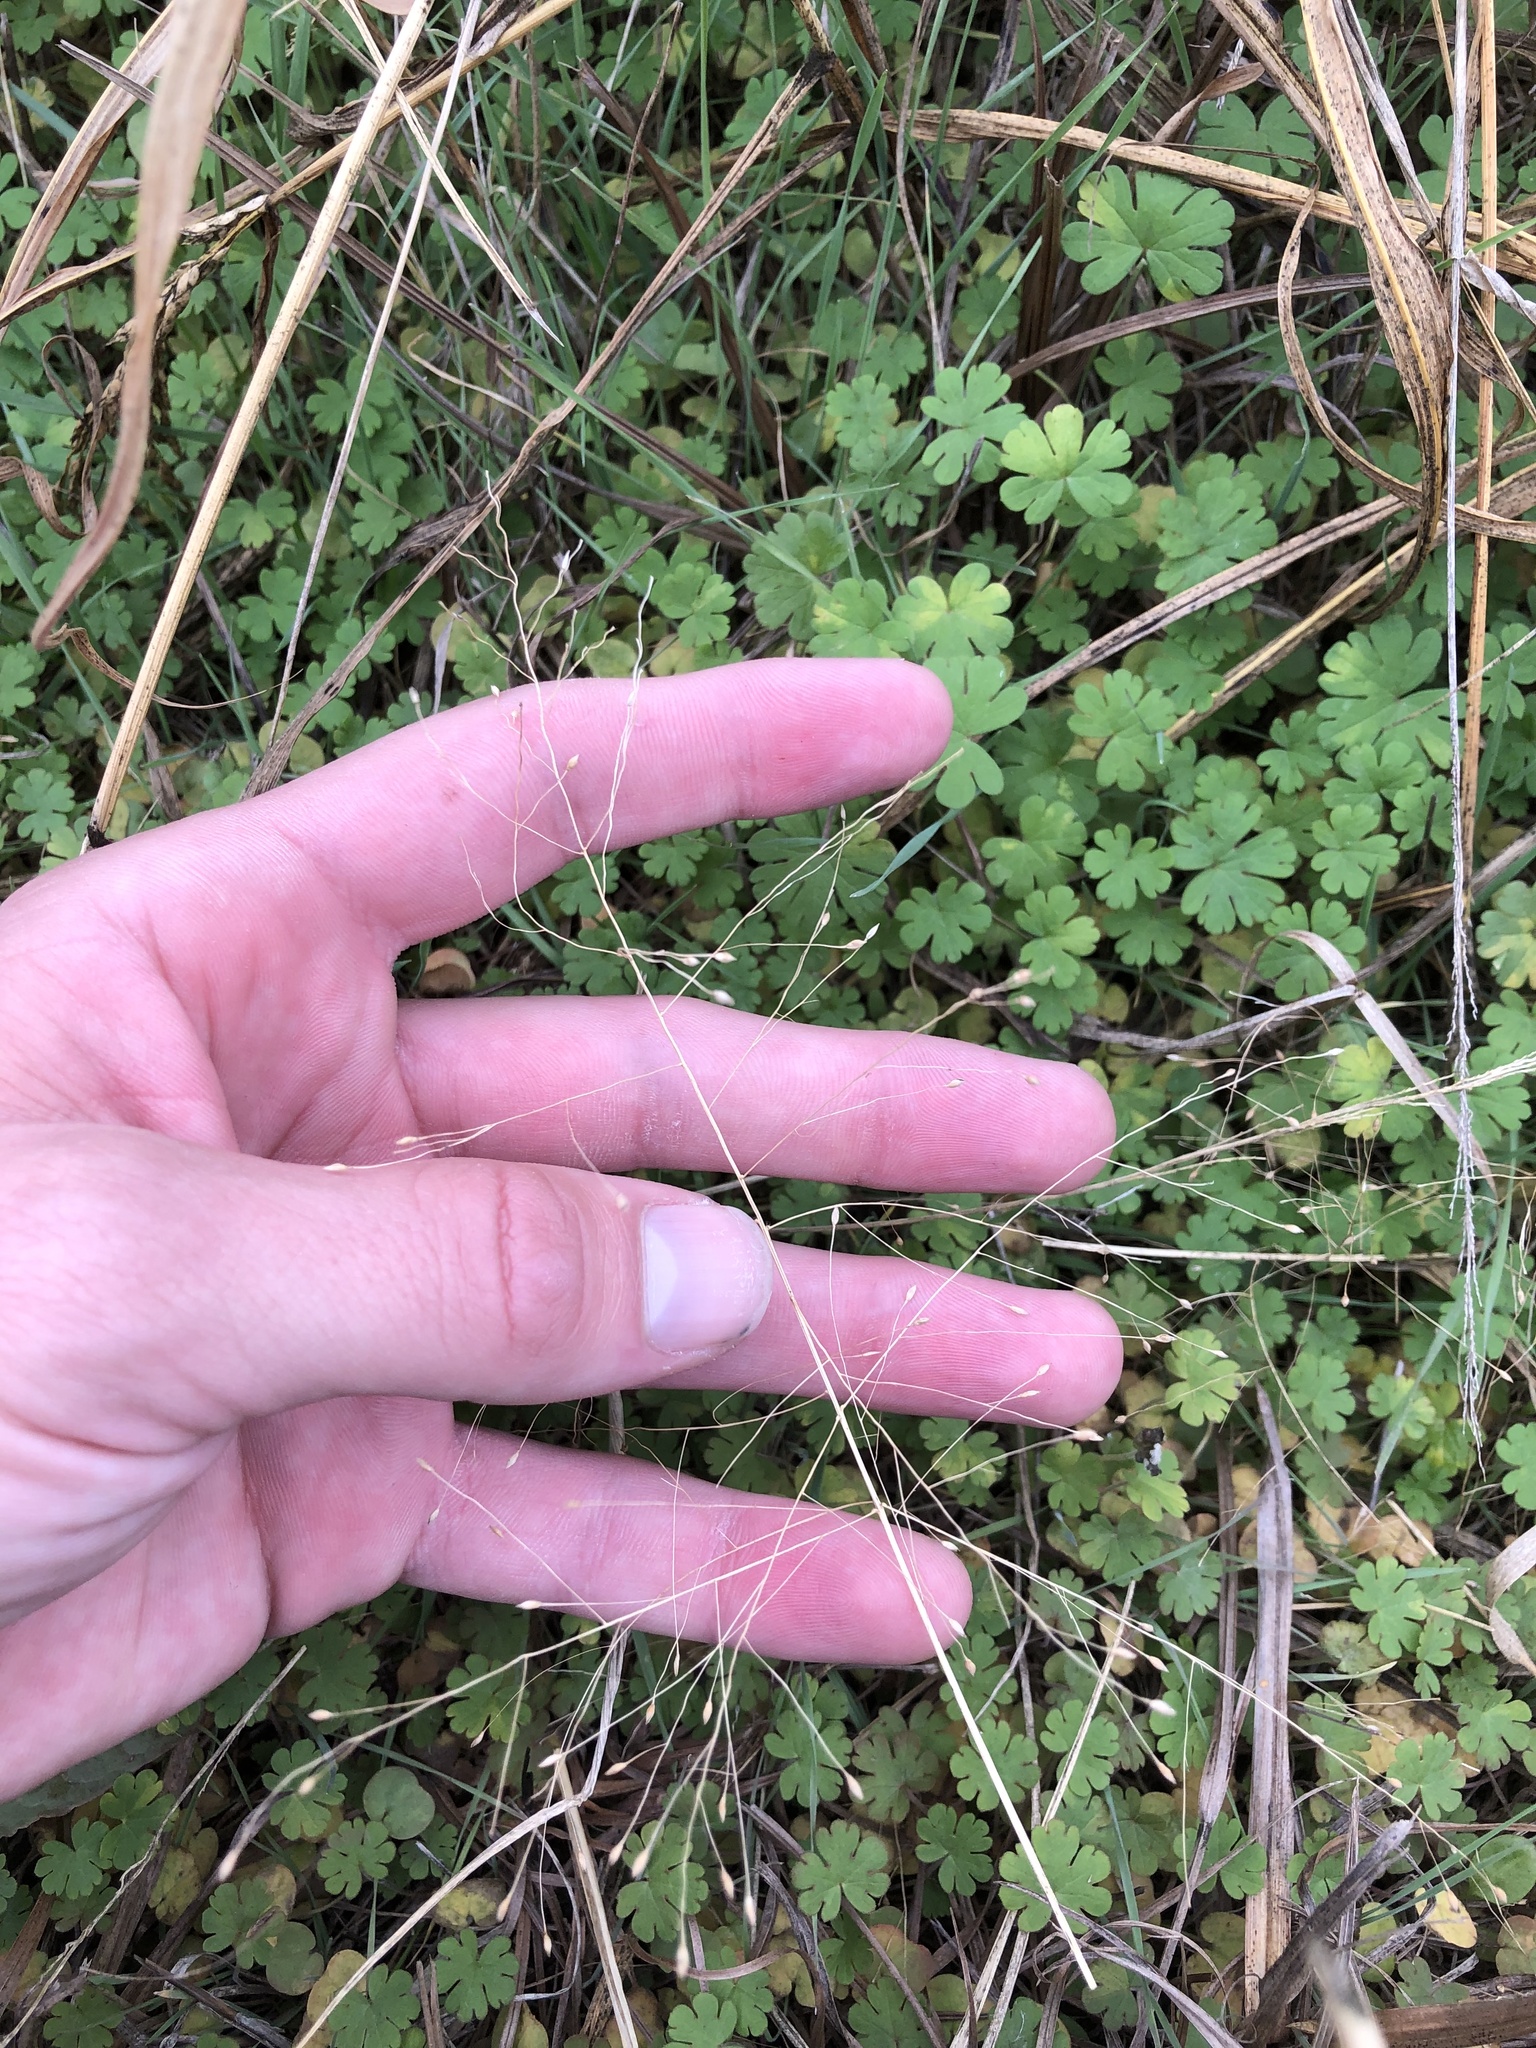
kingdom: Plantae
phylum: Tracheophyta
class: Liliopsida
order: Poales
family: Poaceae
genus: Panicum
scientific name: Panicum capillare
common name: Witch-grass
